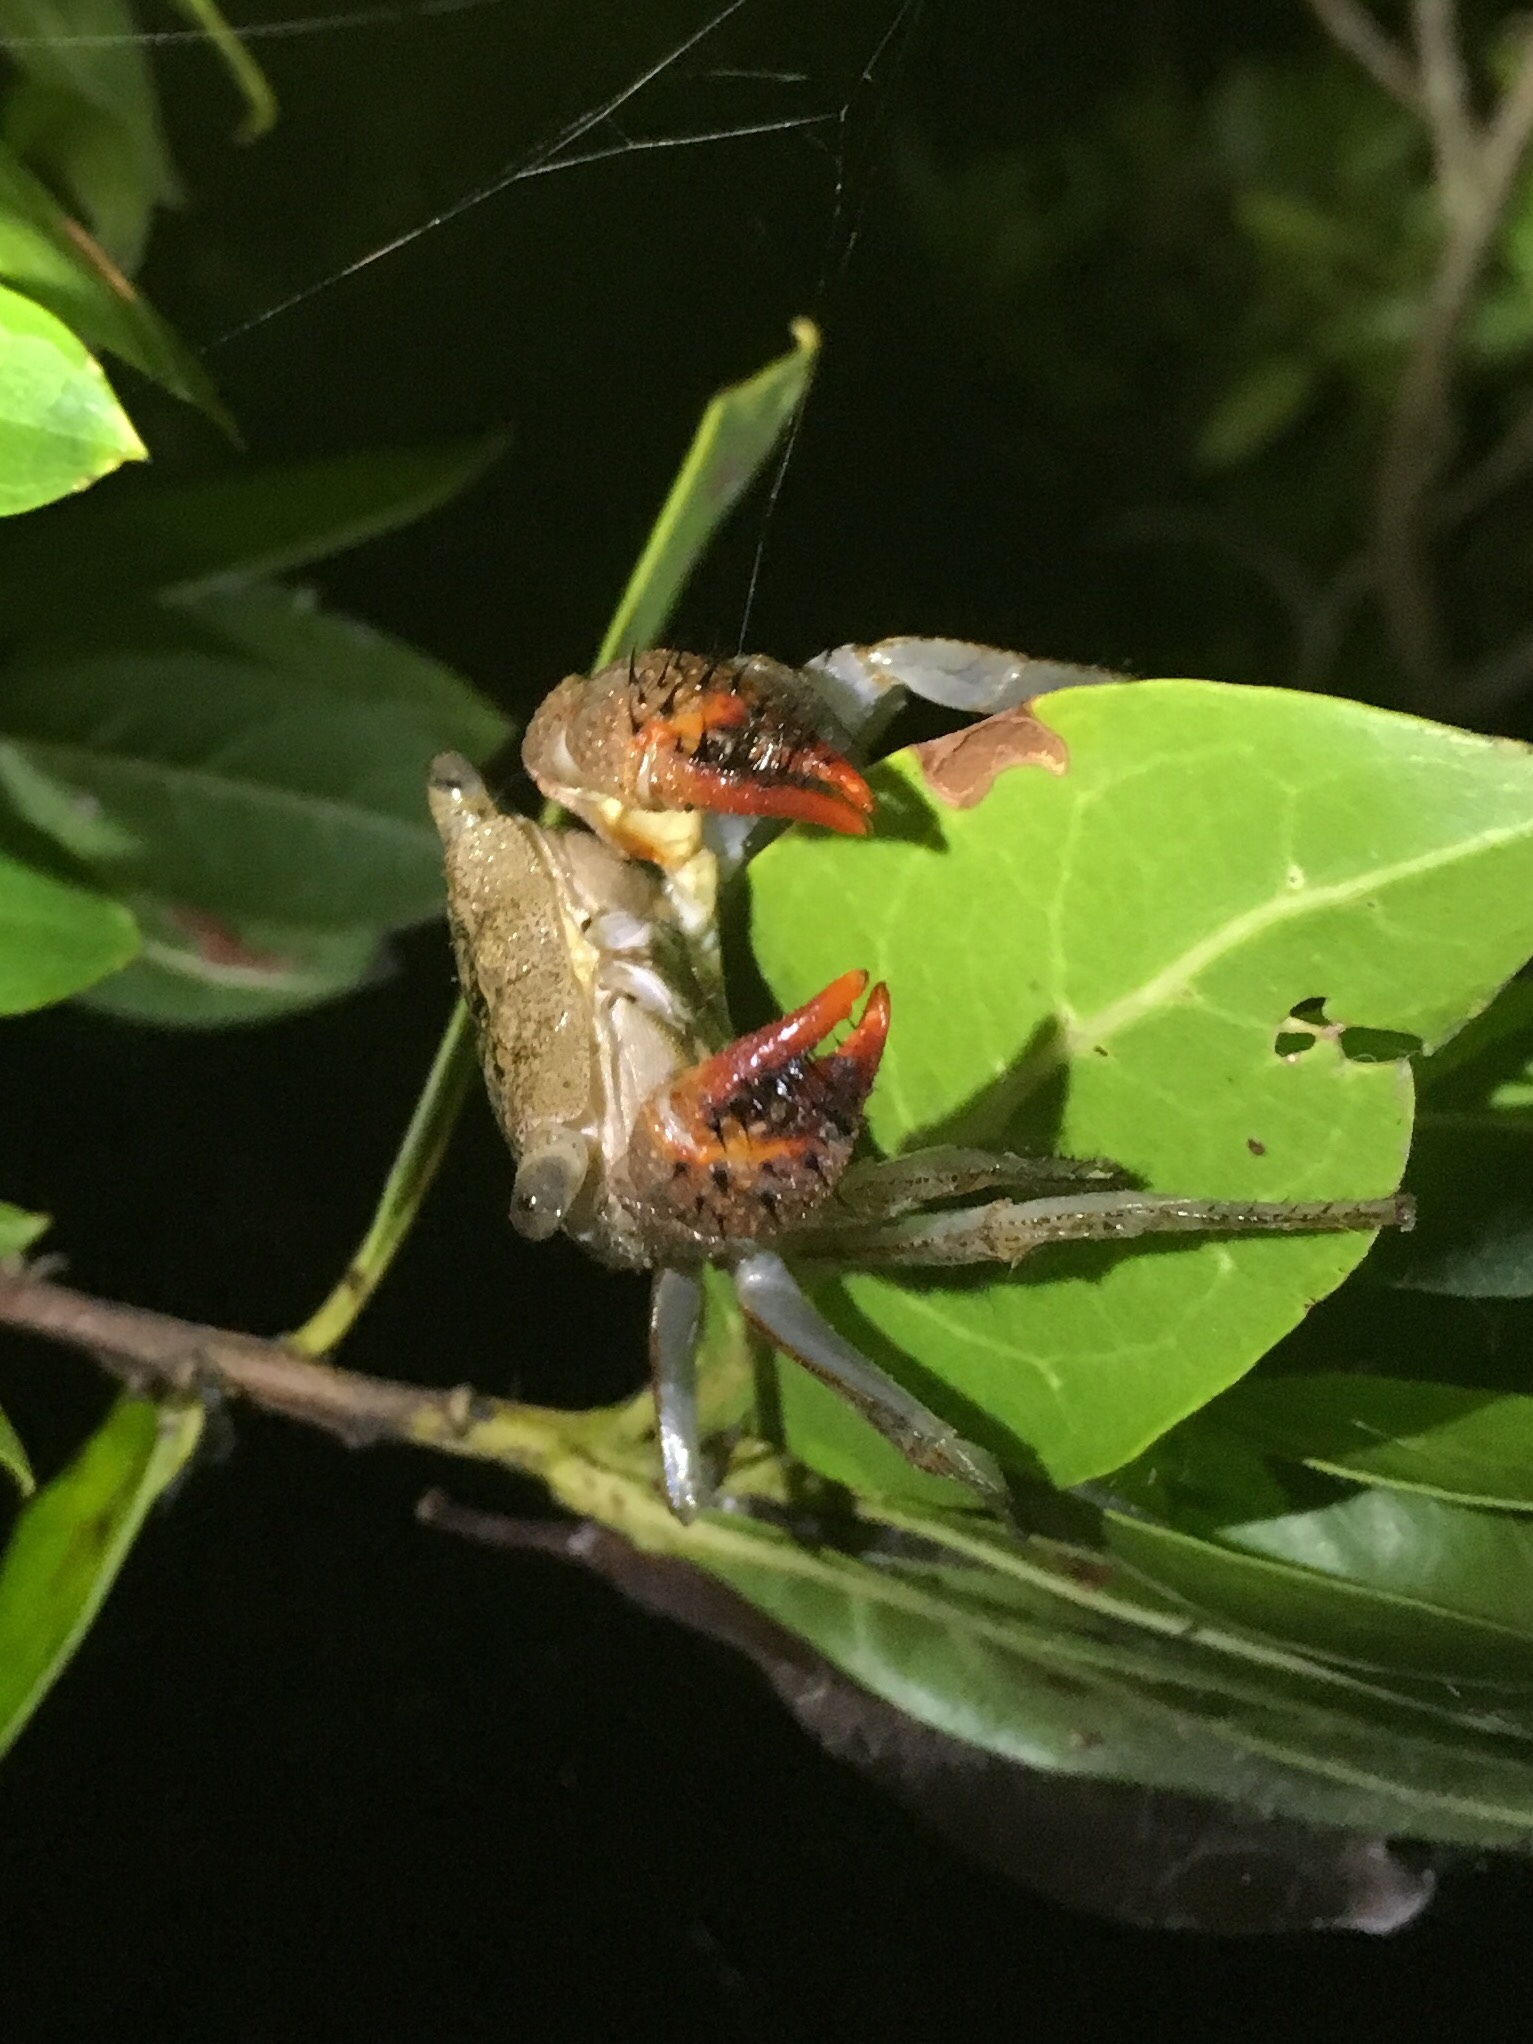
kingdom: Animalia
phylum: Arthropoda
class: Malacostraca
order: Decapoda
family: Sesarmidae
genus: Aratus
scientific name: Aratus pisonii
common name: Mangrove crab
